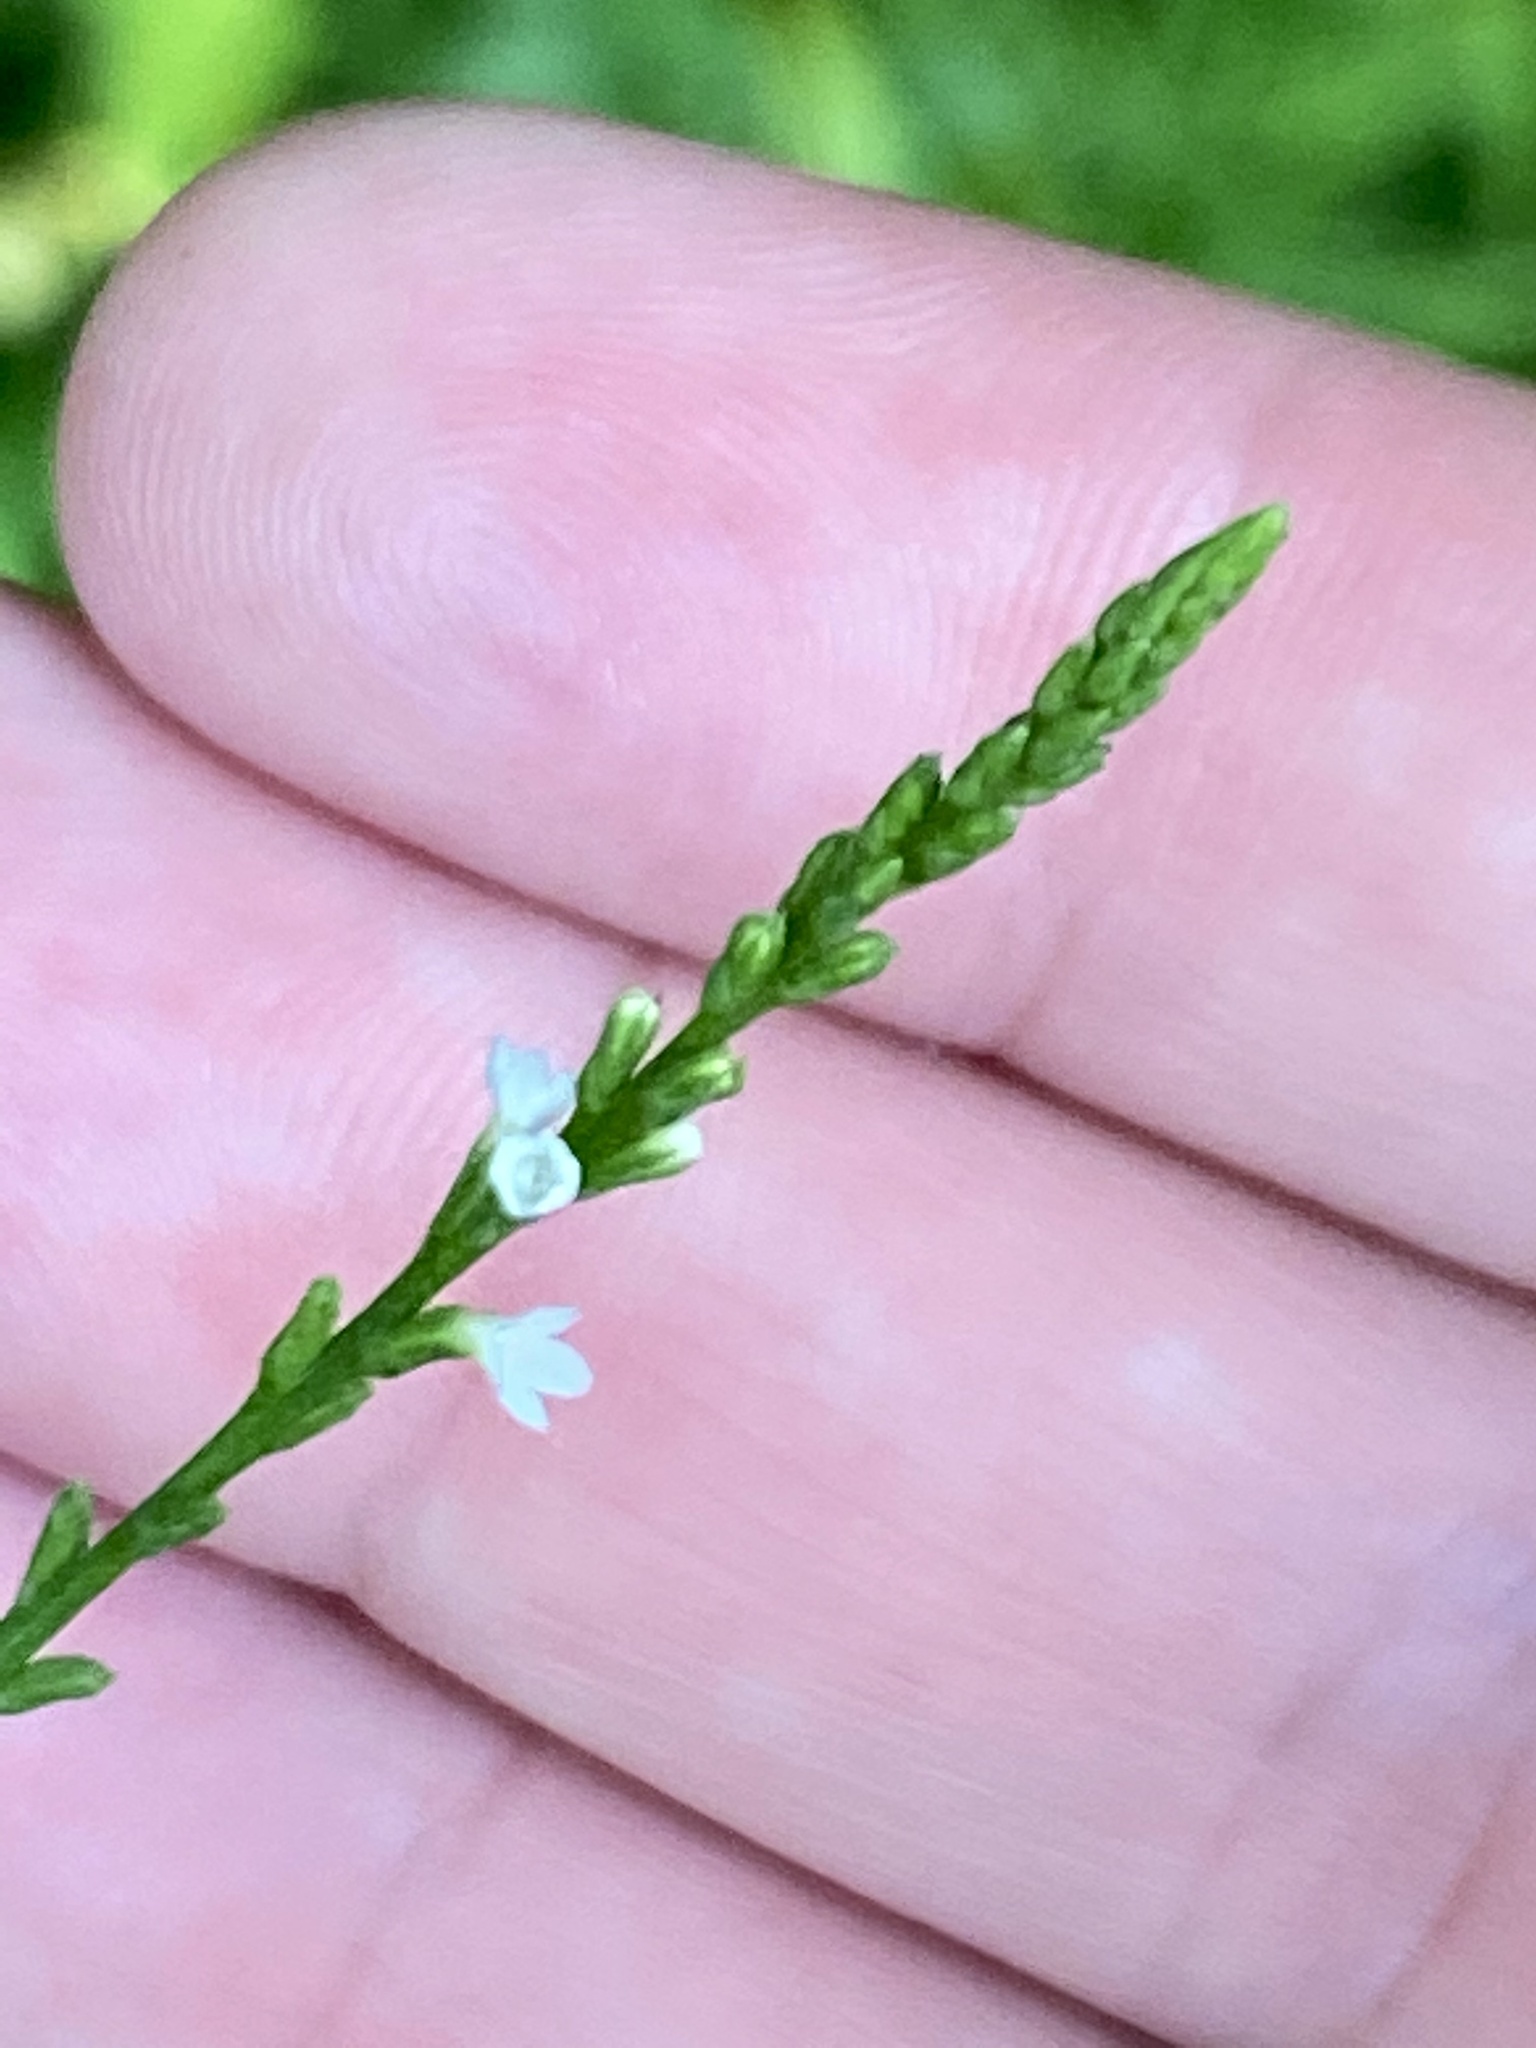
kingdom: Plantae
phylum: Tracheophyta
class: Magnoliopsida
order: Lamiales
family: Verbenaceae
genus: Verbena
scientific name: Verbena urticifolia
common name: Nettle-leaved vervain
